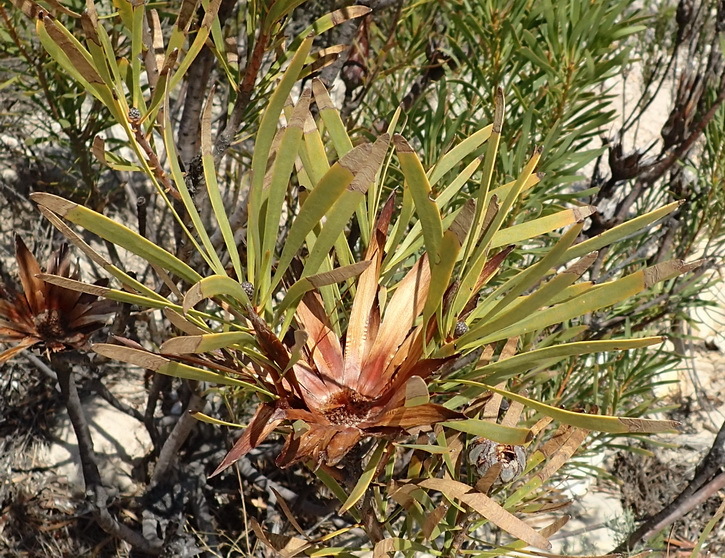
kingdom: Plantae
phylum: Tracheophyta
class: Magnoliopsida
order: Proteales
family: Proteaceae
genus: Protea
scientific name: Protea repens
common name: Sugarbush
